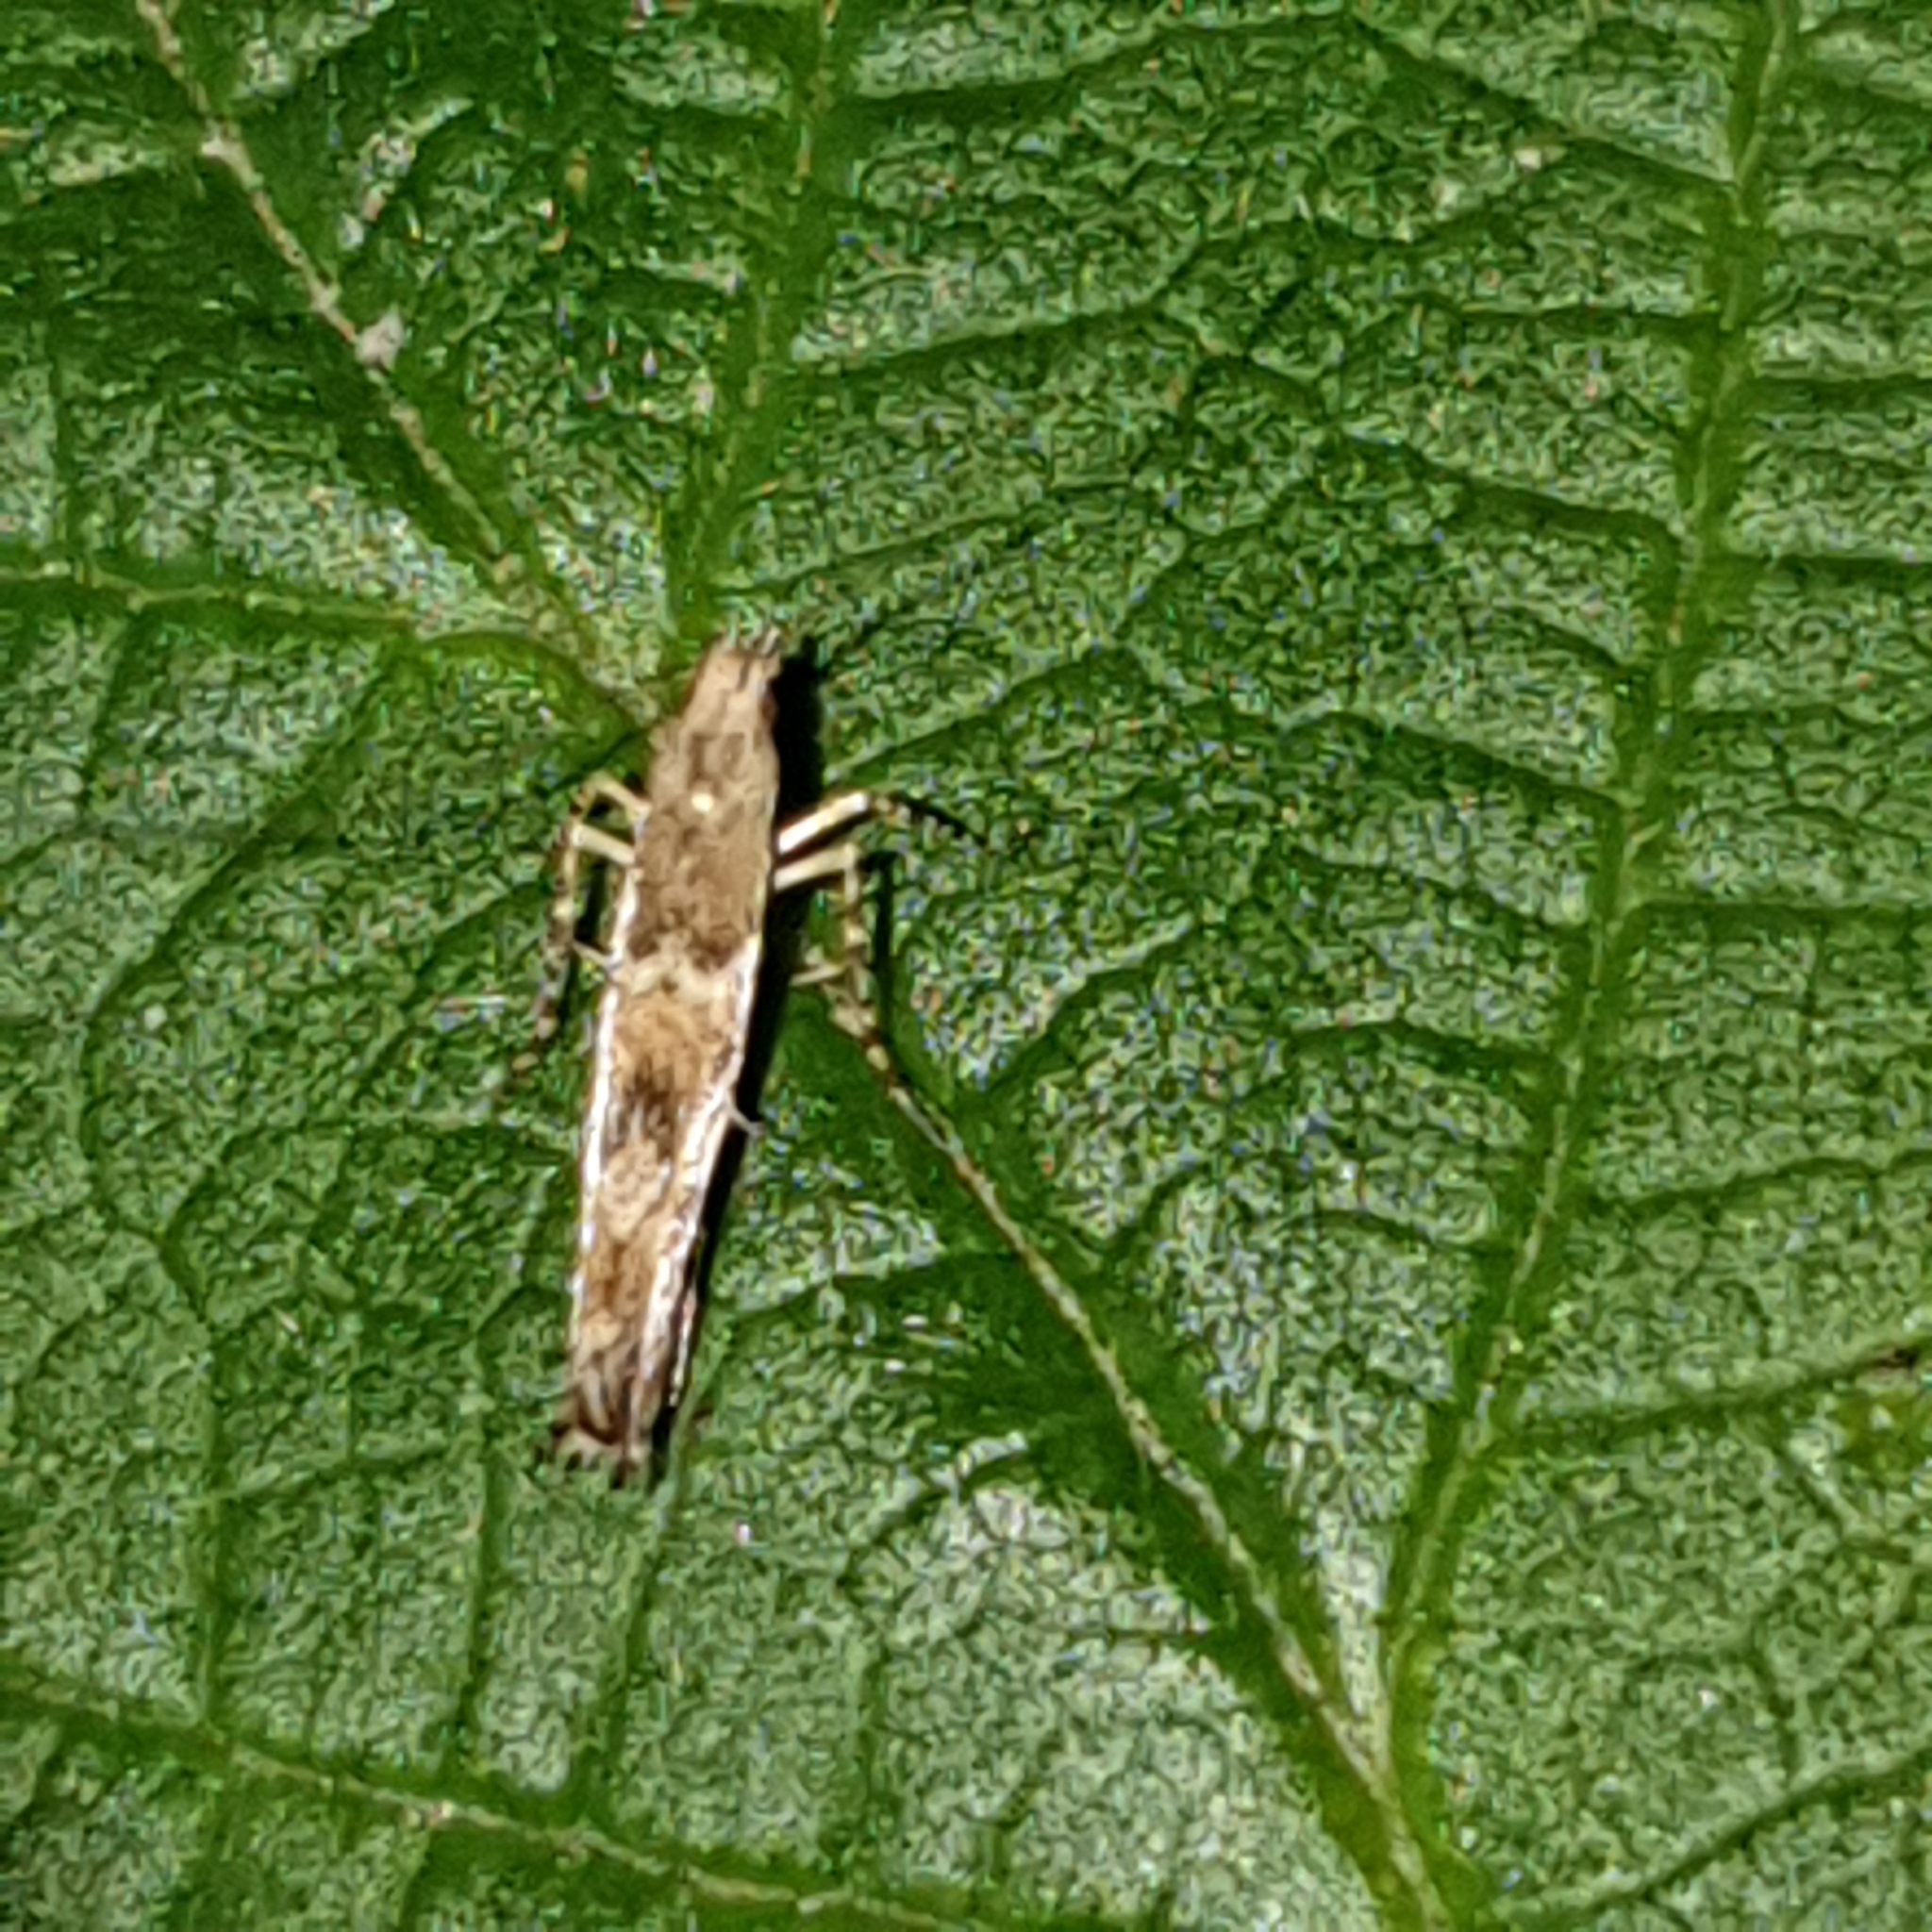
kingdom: Animalia
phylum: Arthropoda
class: Insecta
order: Lepidoptera
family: Gracillariidae
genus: Acrocercops
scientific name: Acrocercops brongniardella
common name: Brown oak slender
